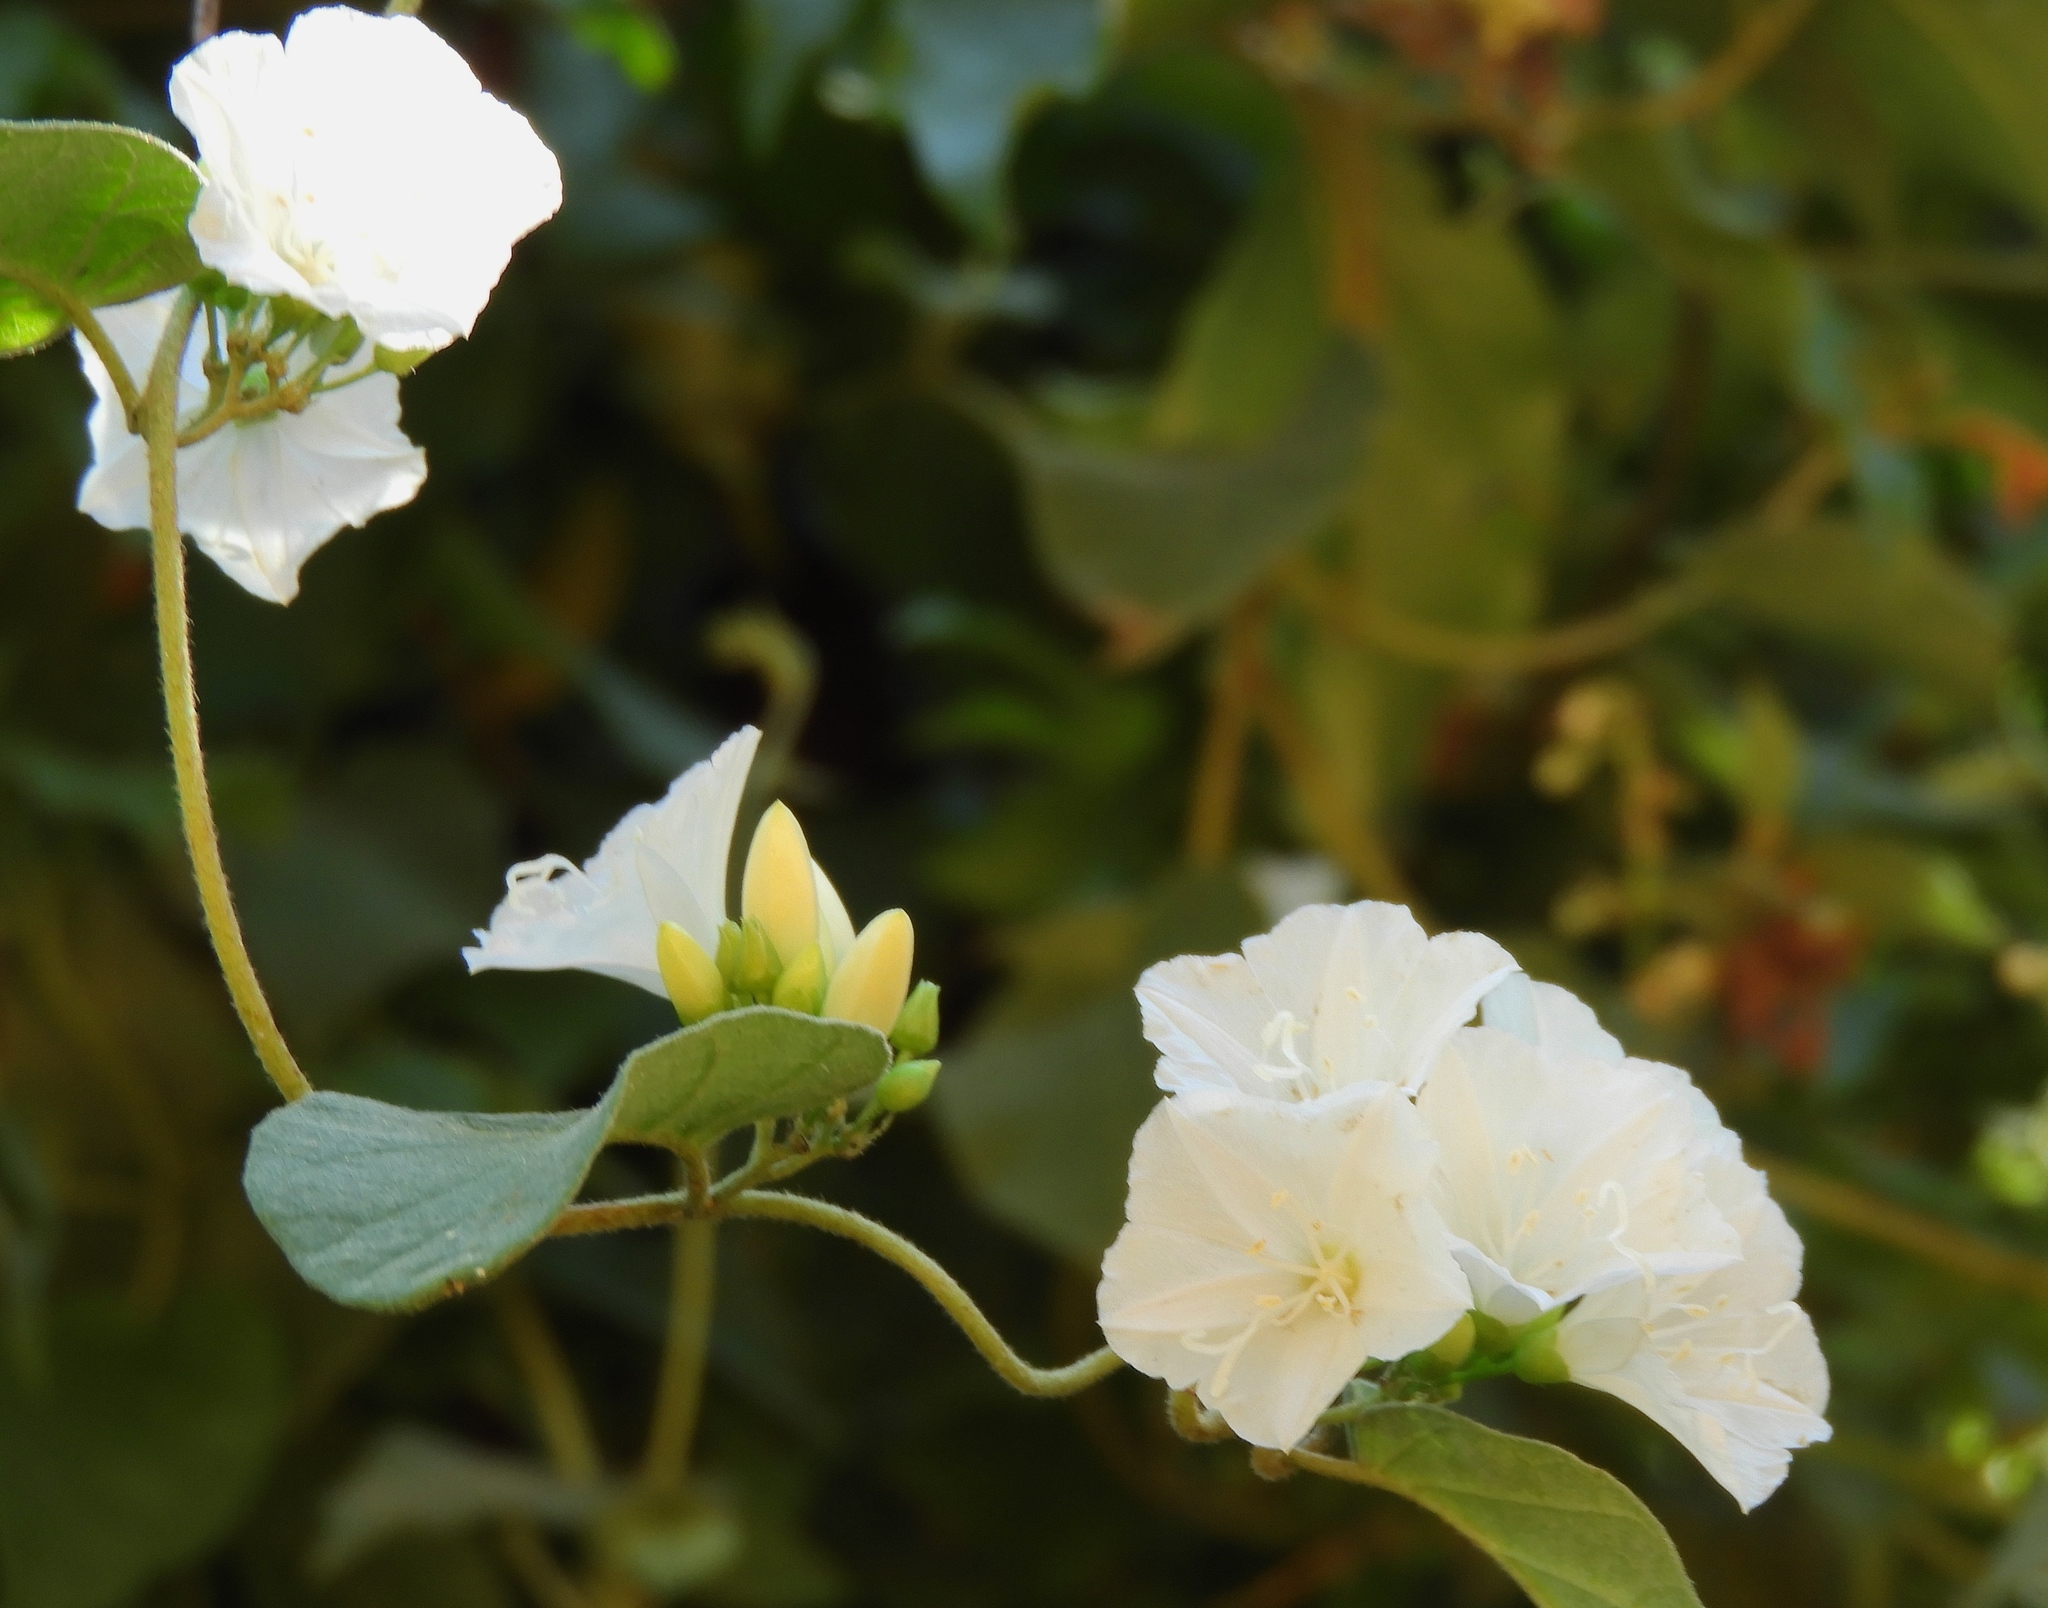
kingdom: Plantae
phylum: Tracheophyta
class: Magnoliopsida
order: Solanales
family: Convolvulaceae
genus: Jacquemontia
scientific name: Jacquemontia nodiflora
